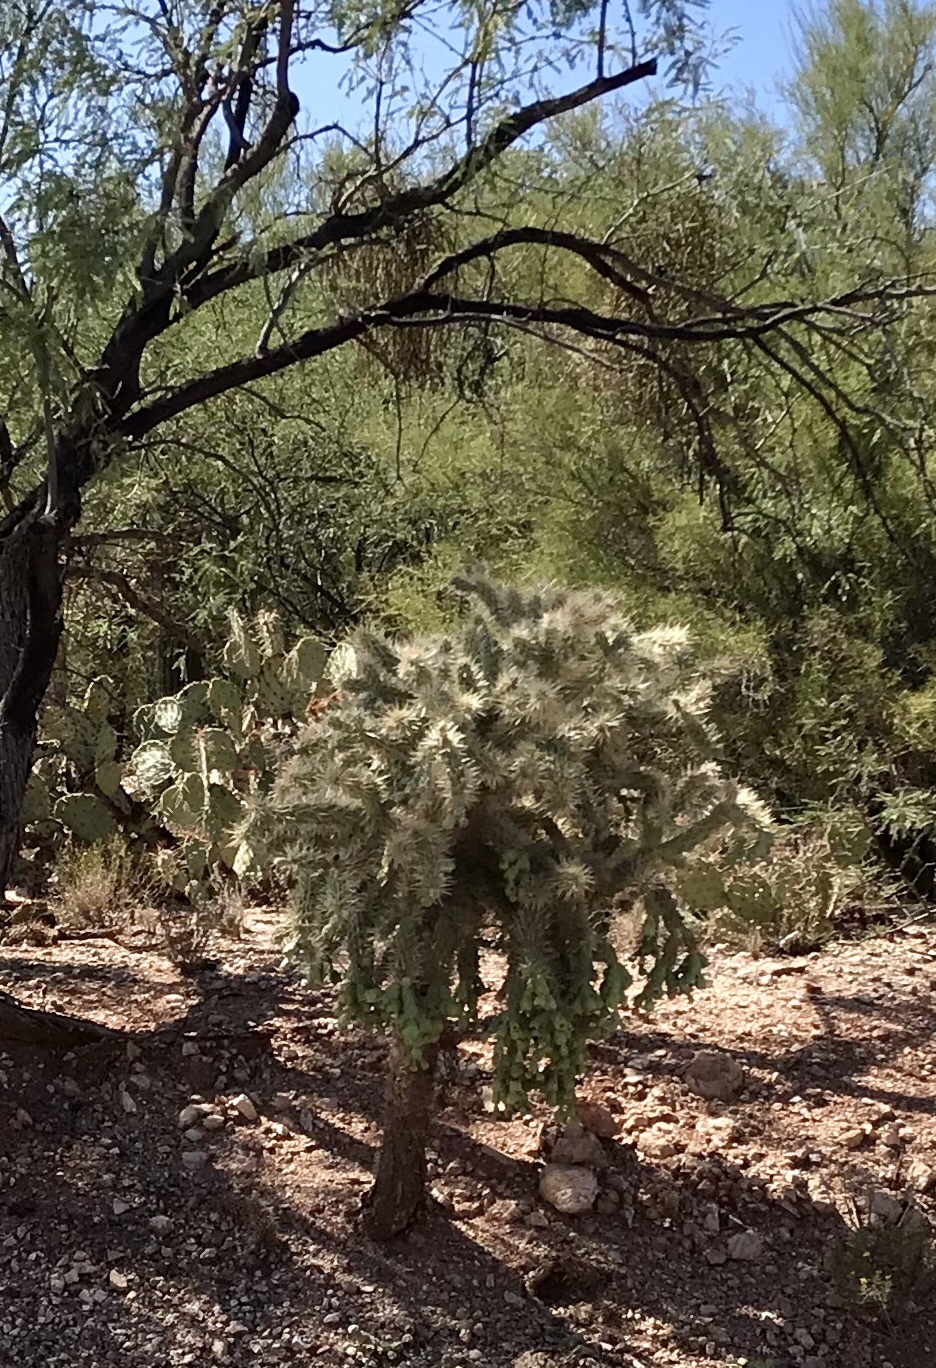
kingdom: Plantae
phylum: Tracheophyta
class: Magnoliopsida
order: Caryophyllales
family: Cactaceae
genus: Cylindropuntia
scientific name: Cylindropuntia fulgida
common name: Jumping cholla
